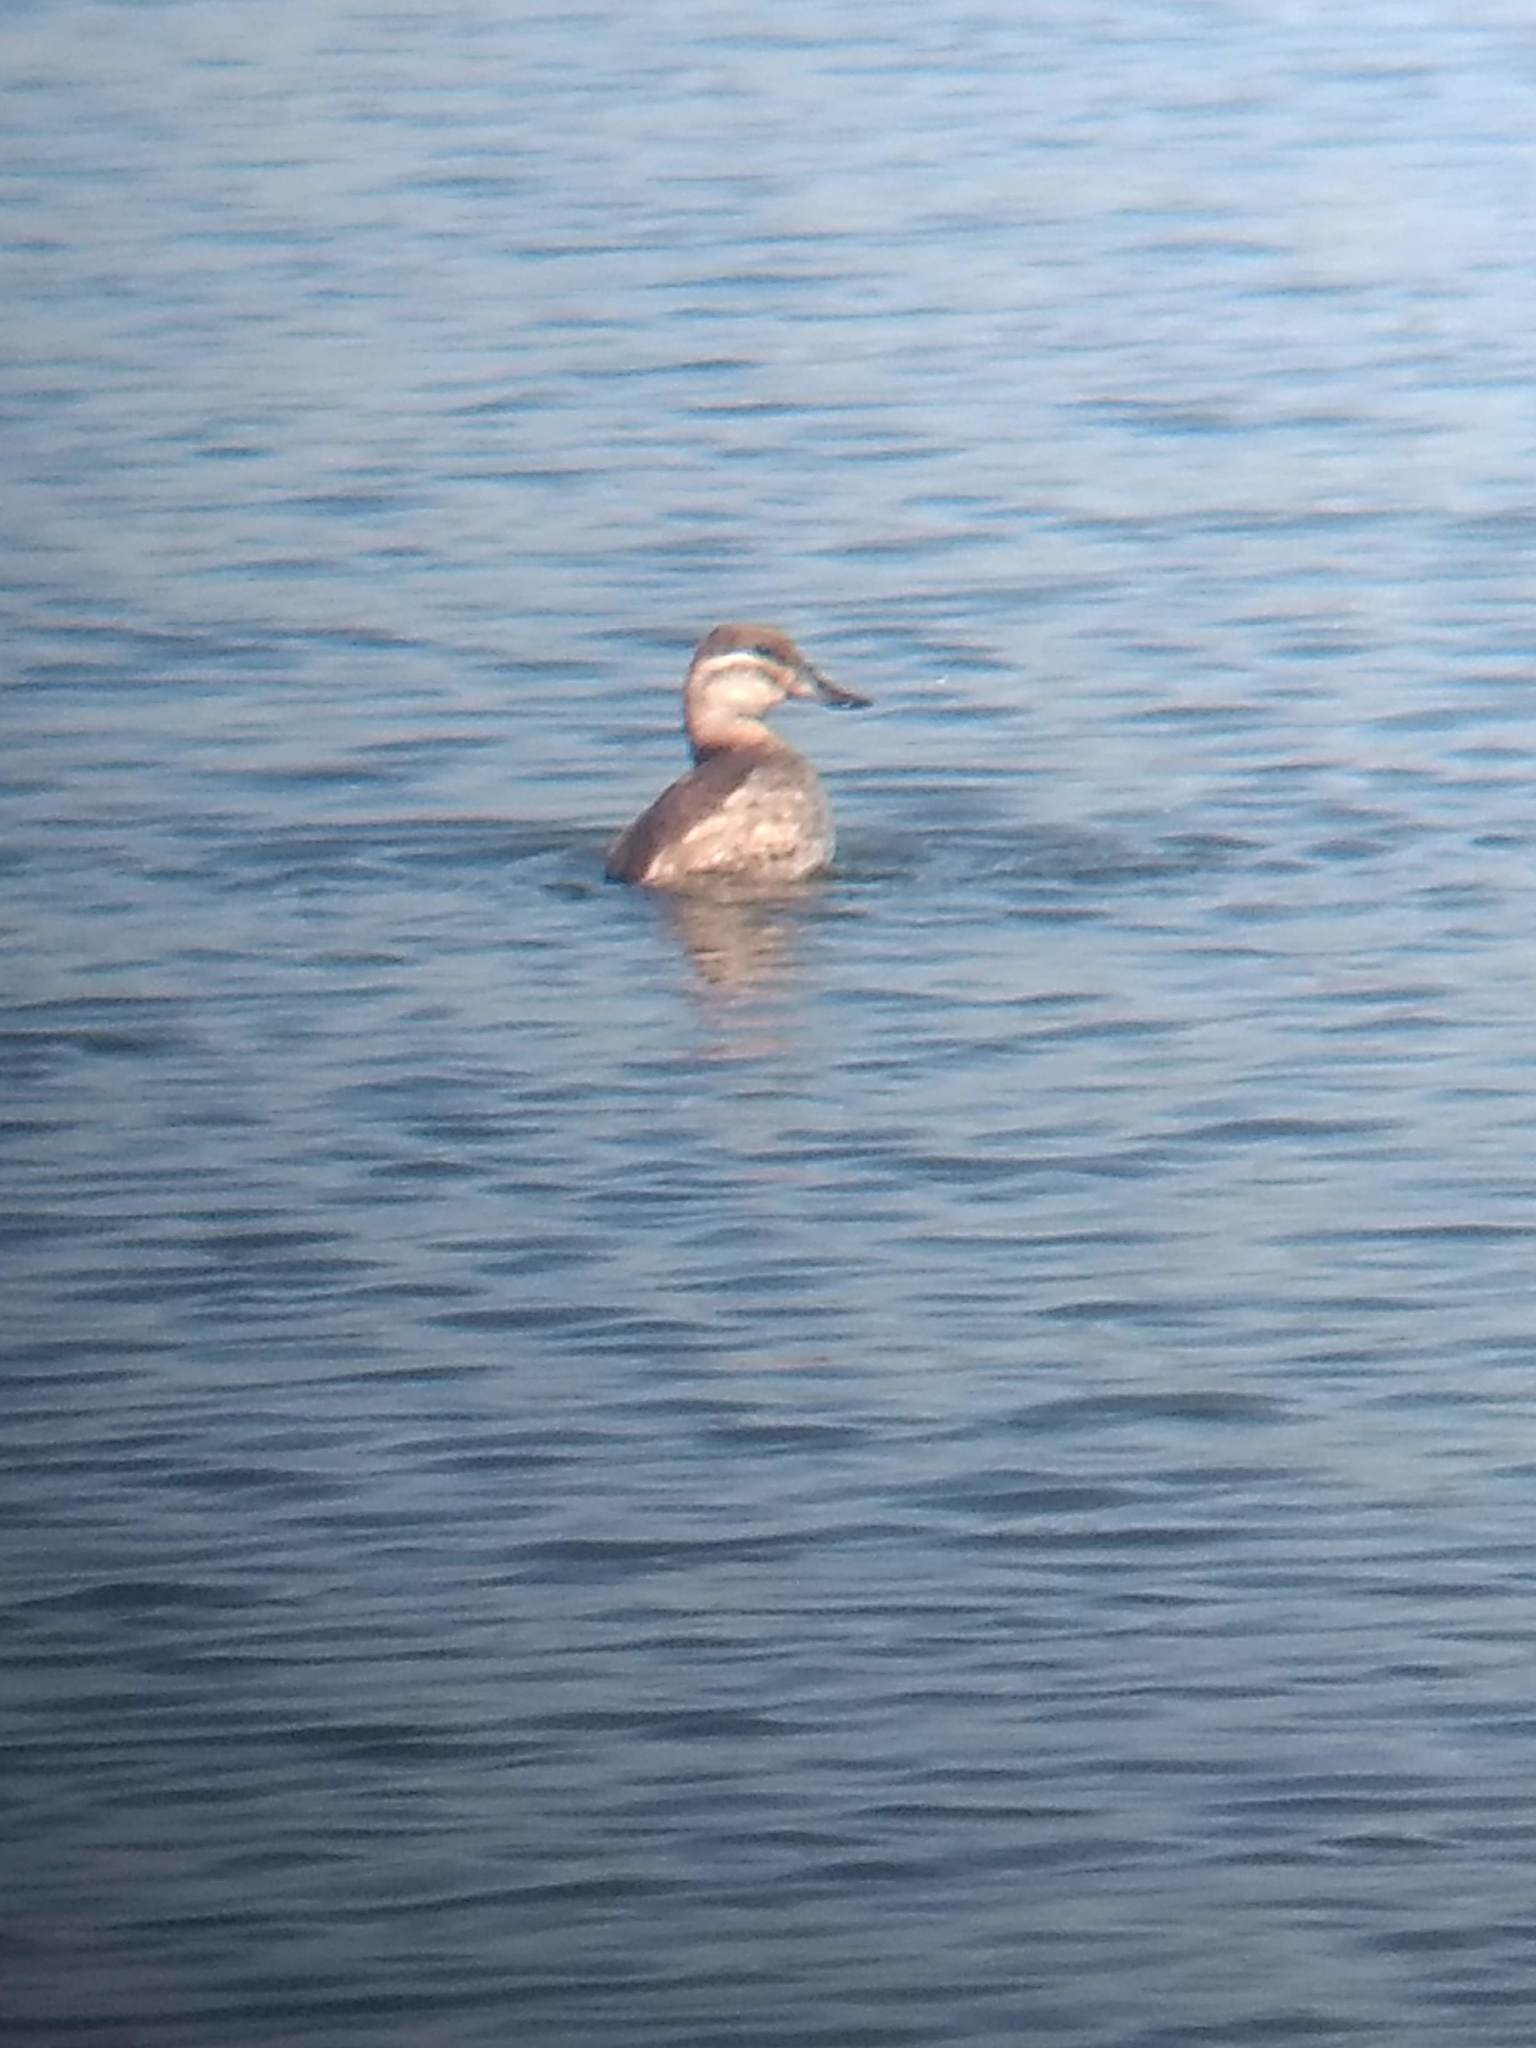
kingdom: Animalia
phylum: Chordata
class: Aves
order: Anseriformes
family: Anatidae
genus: Oxyura
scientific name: Oxyura jamaicensis
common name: Ruddy duck
